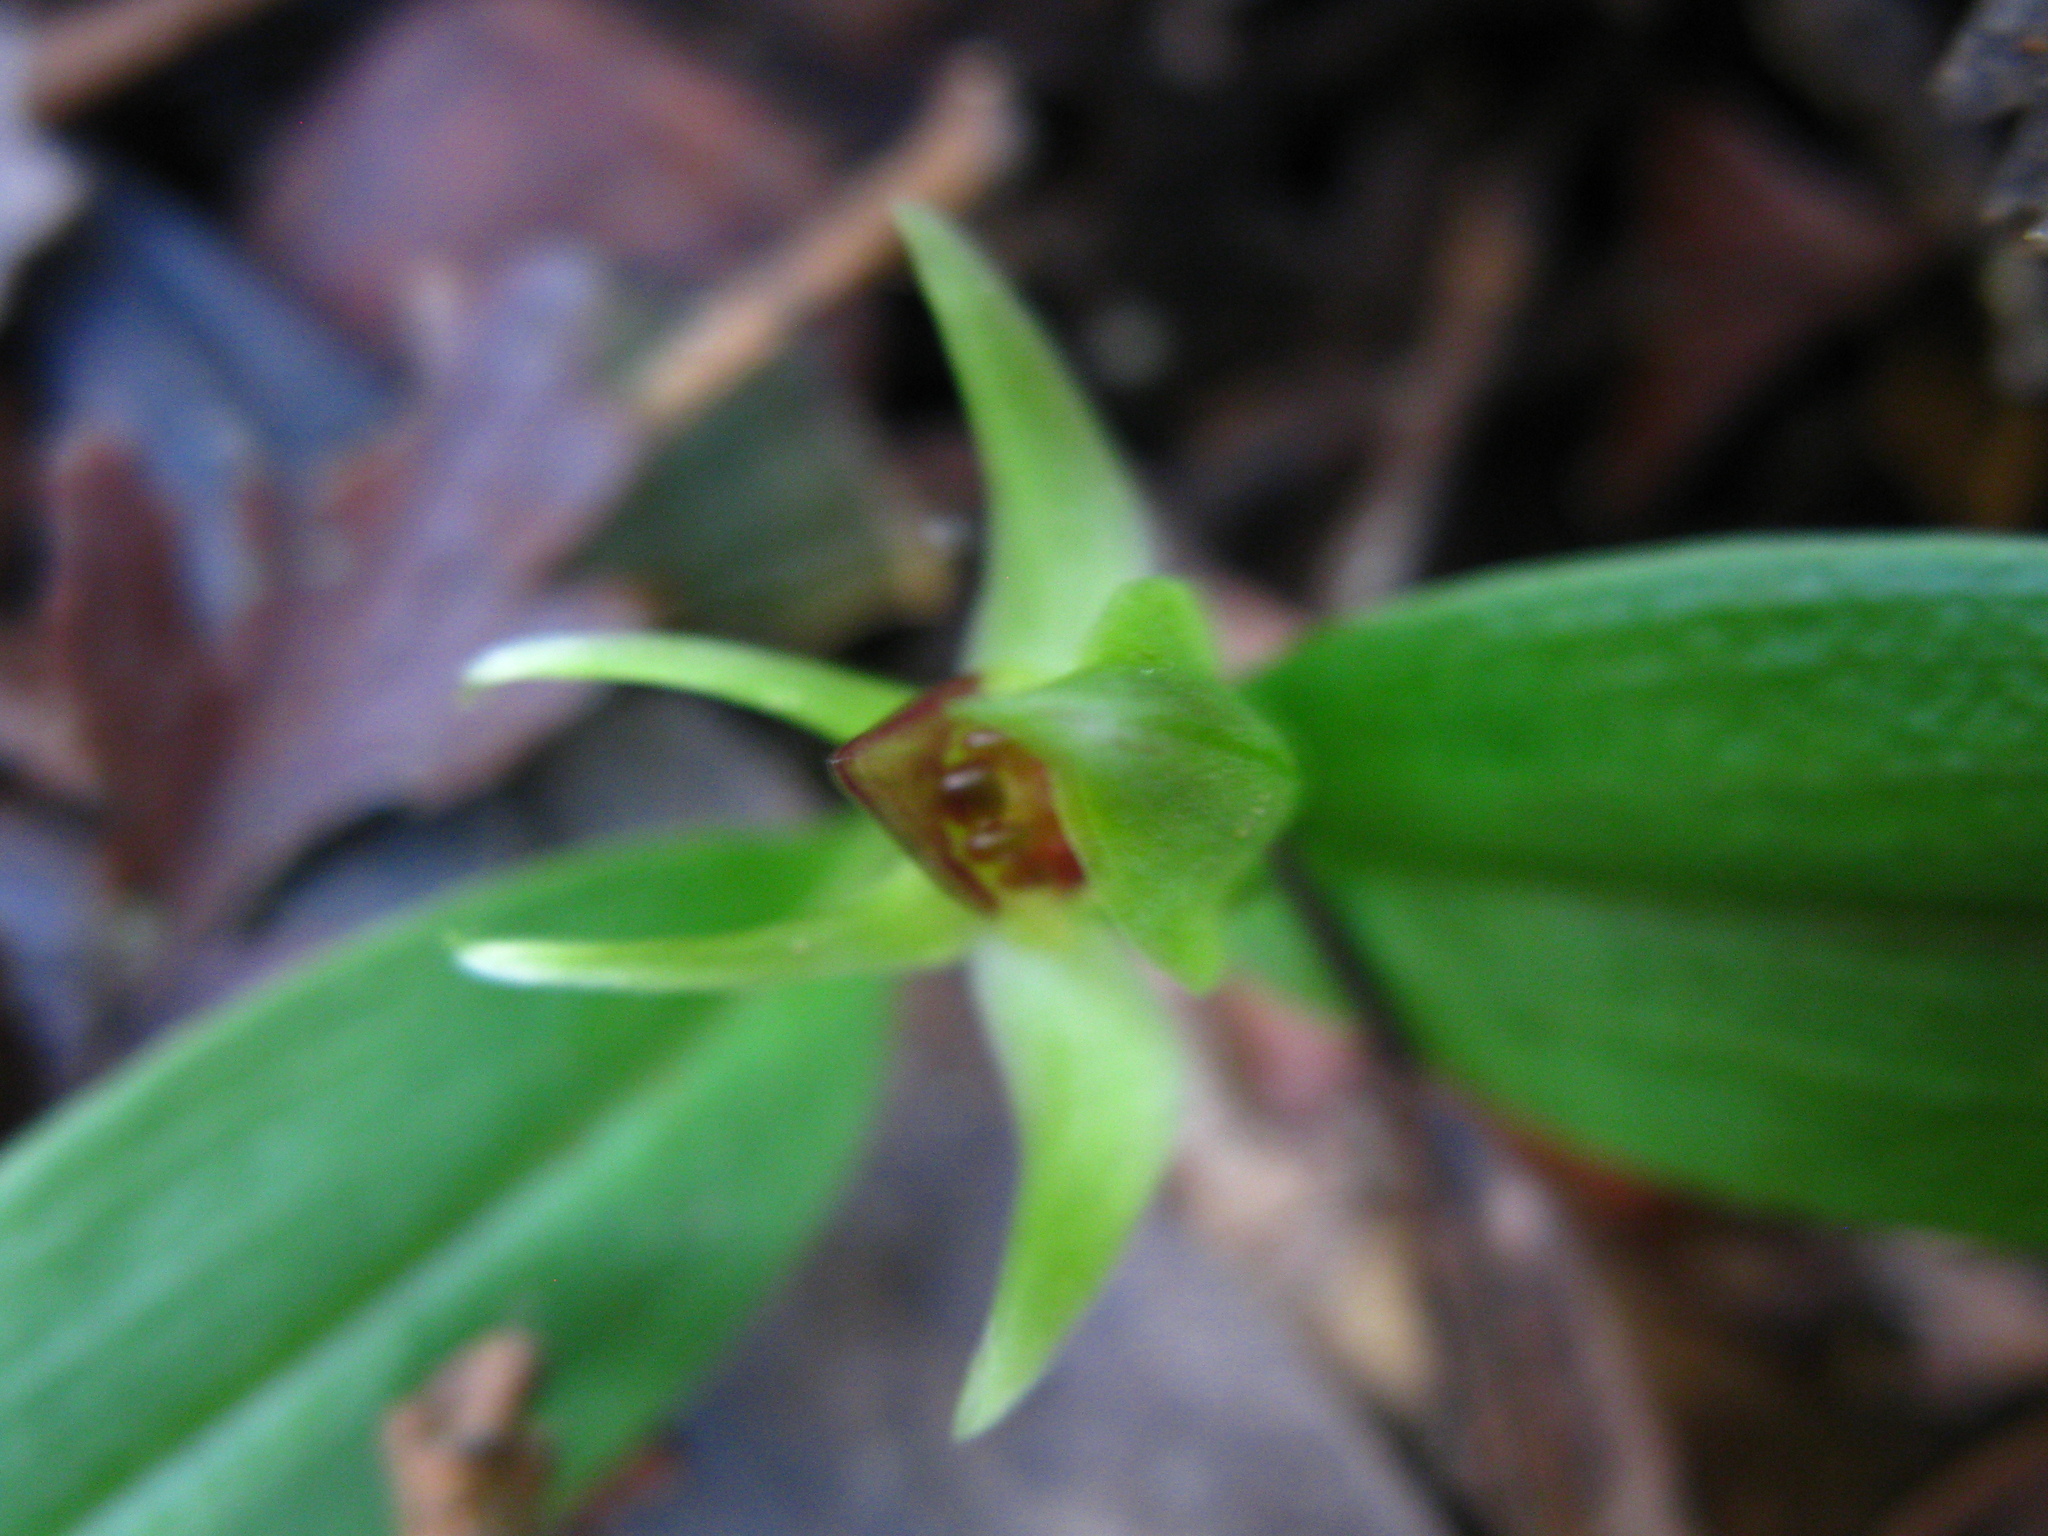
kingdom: Plantae
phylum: Tracheophyta
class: Liliopsida
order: Asparagales
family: Orchidaceae
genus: Chiloglottis
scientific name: Chiloglottis cornuta
